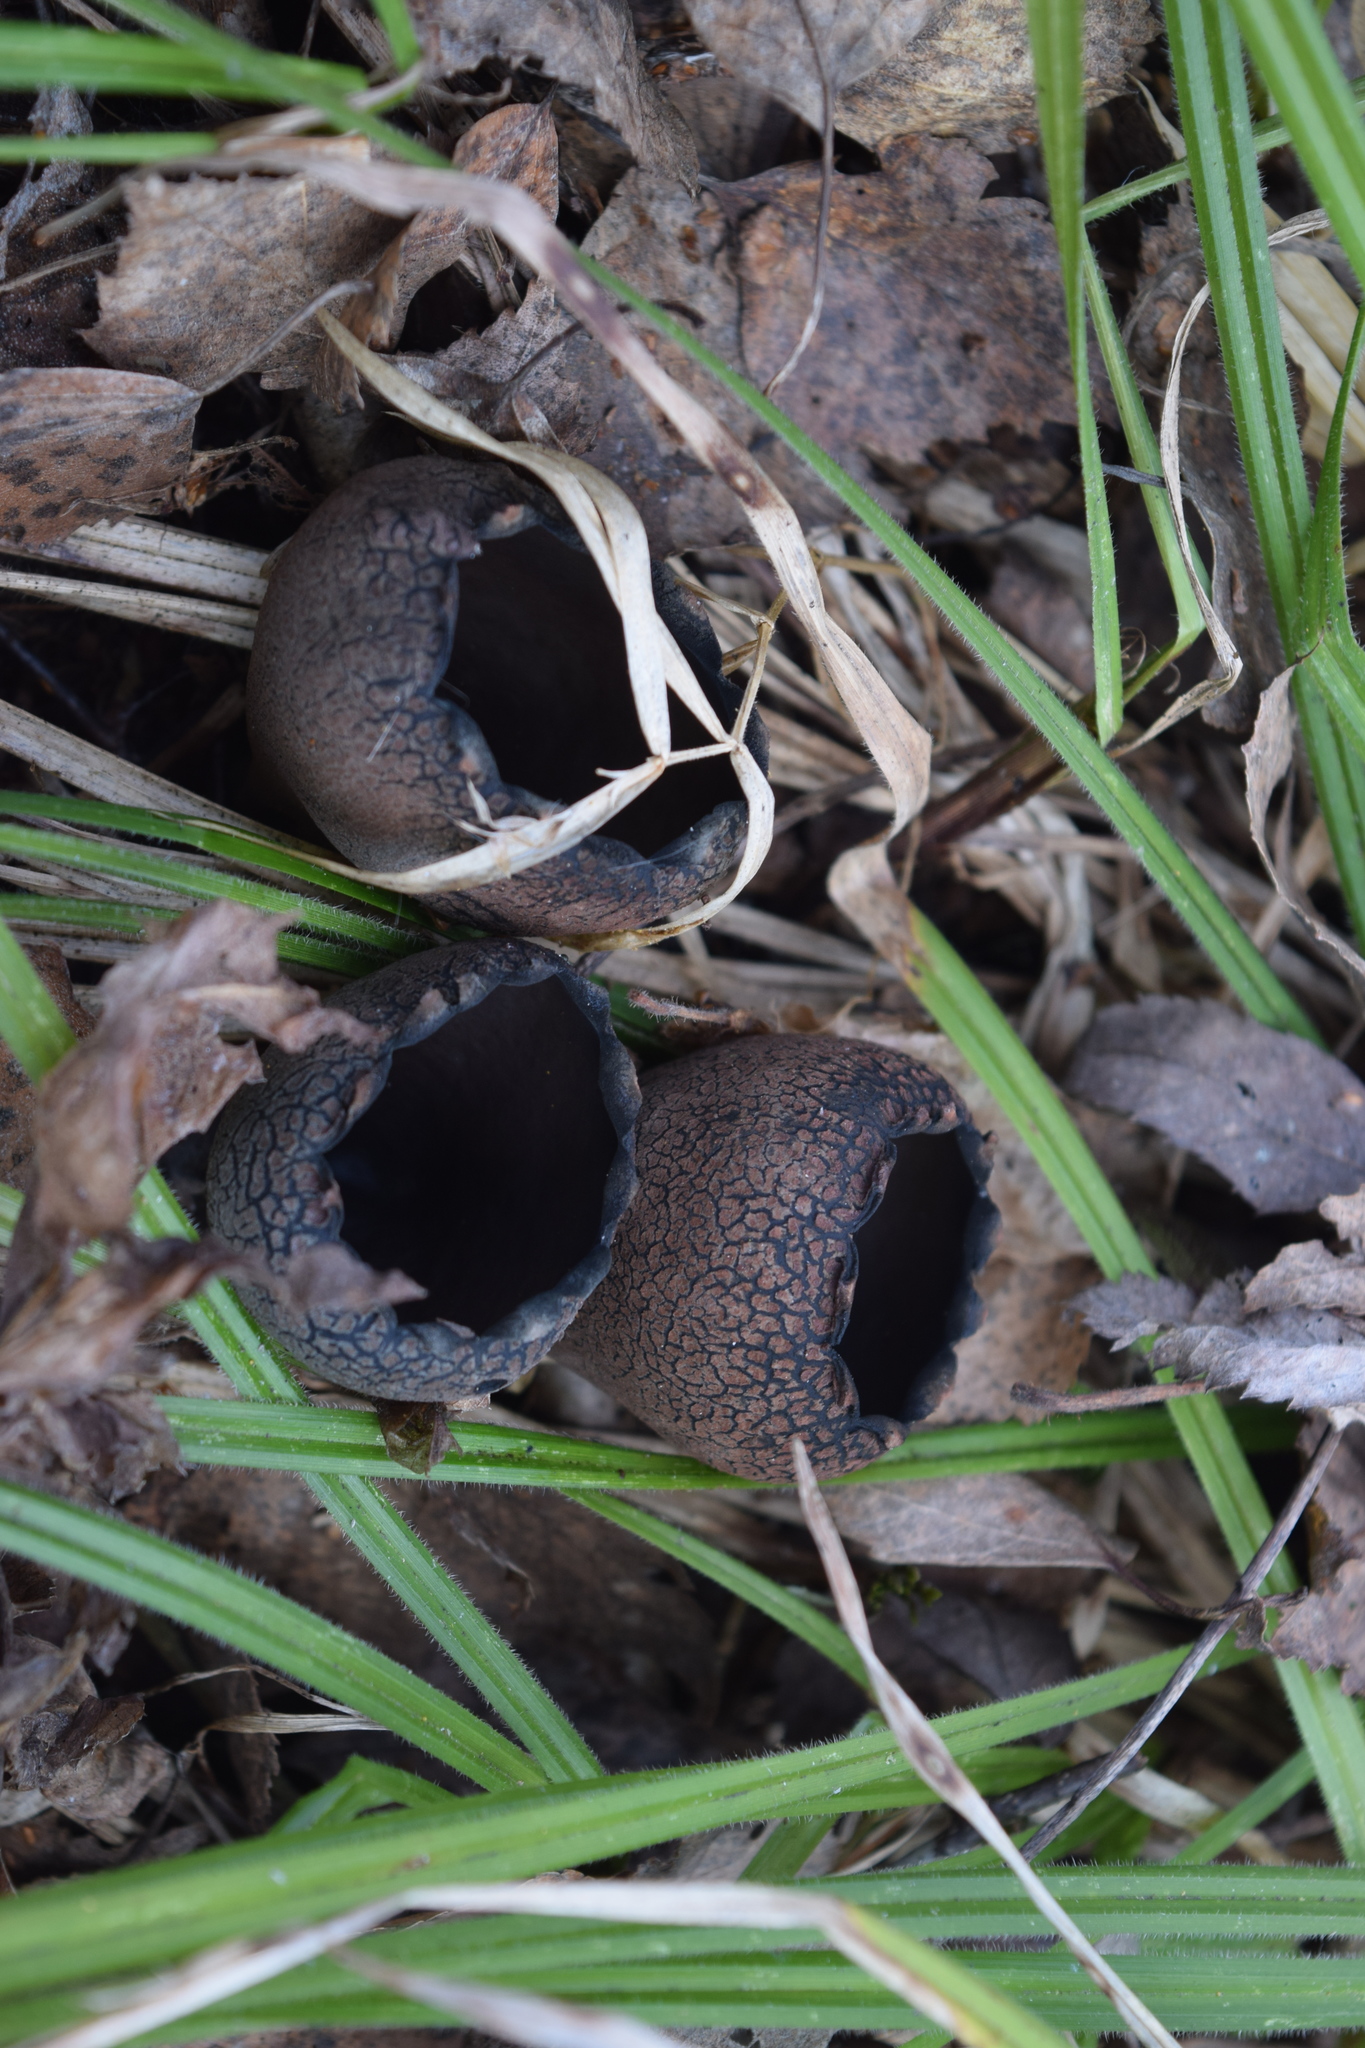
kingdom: Fungi
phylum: Ascomycota
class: Pezizomycetes
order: Pezizales
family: Sarcosomataceae
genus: Urnula
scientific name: Urnula craterium
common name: Devil's urn
